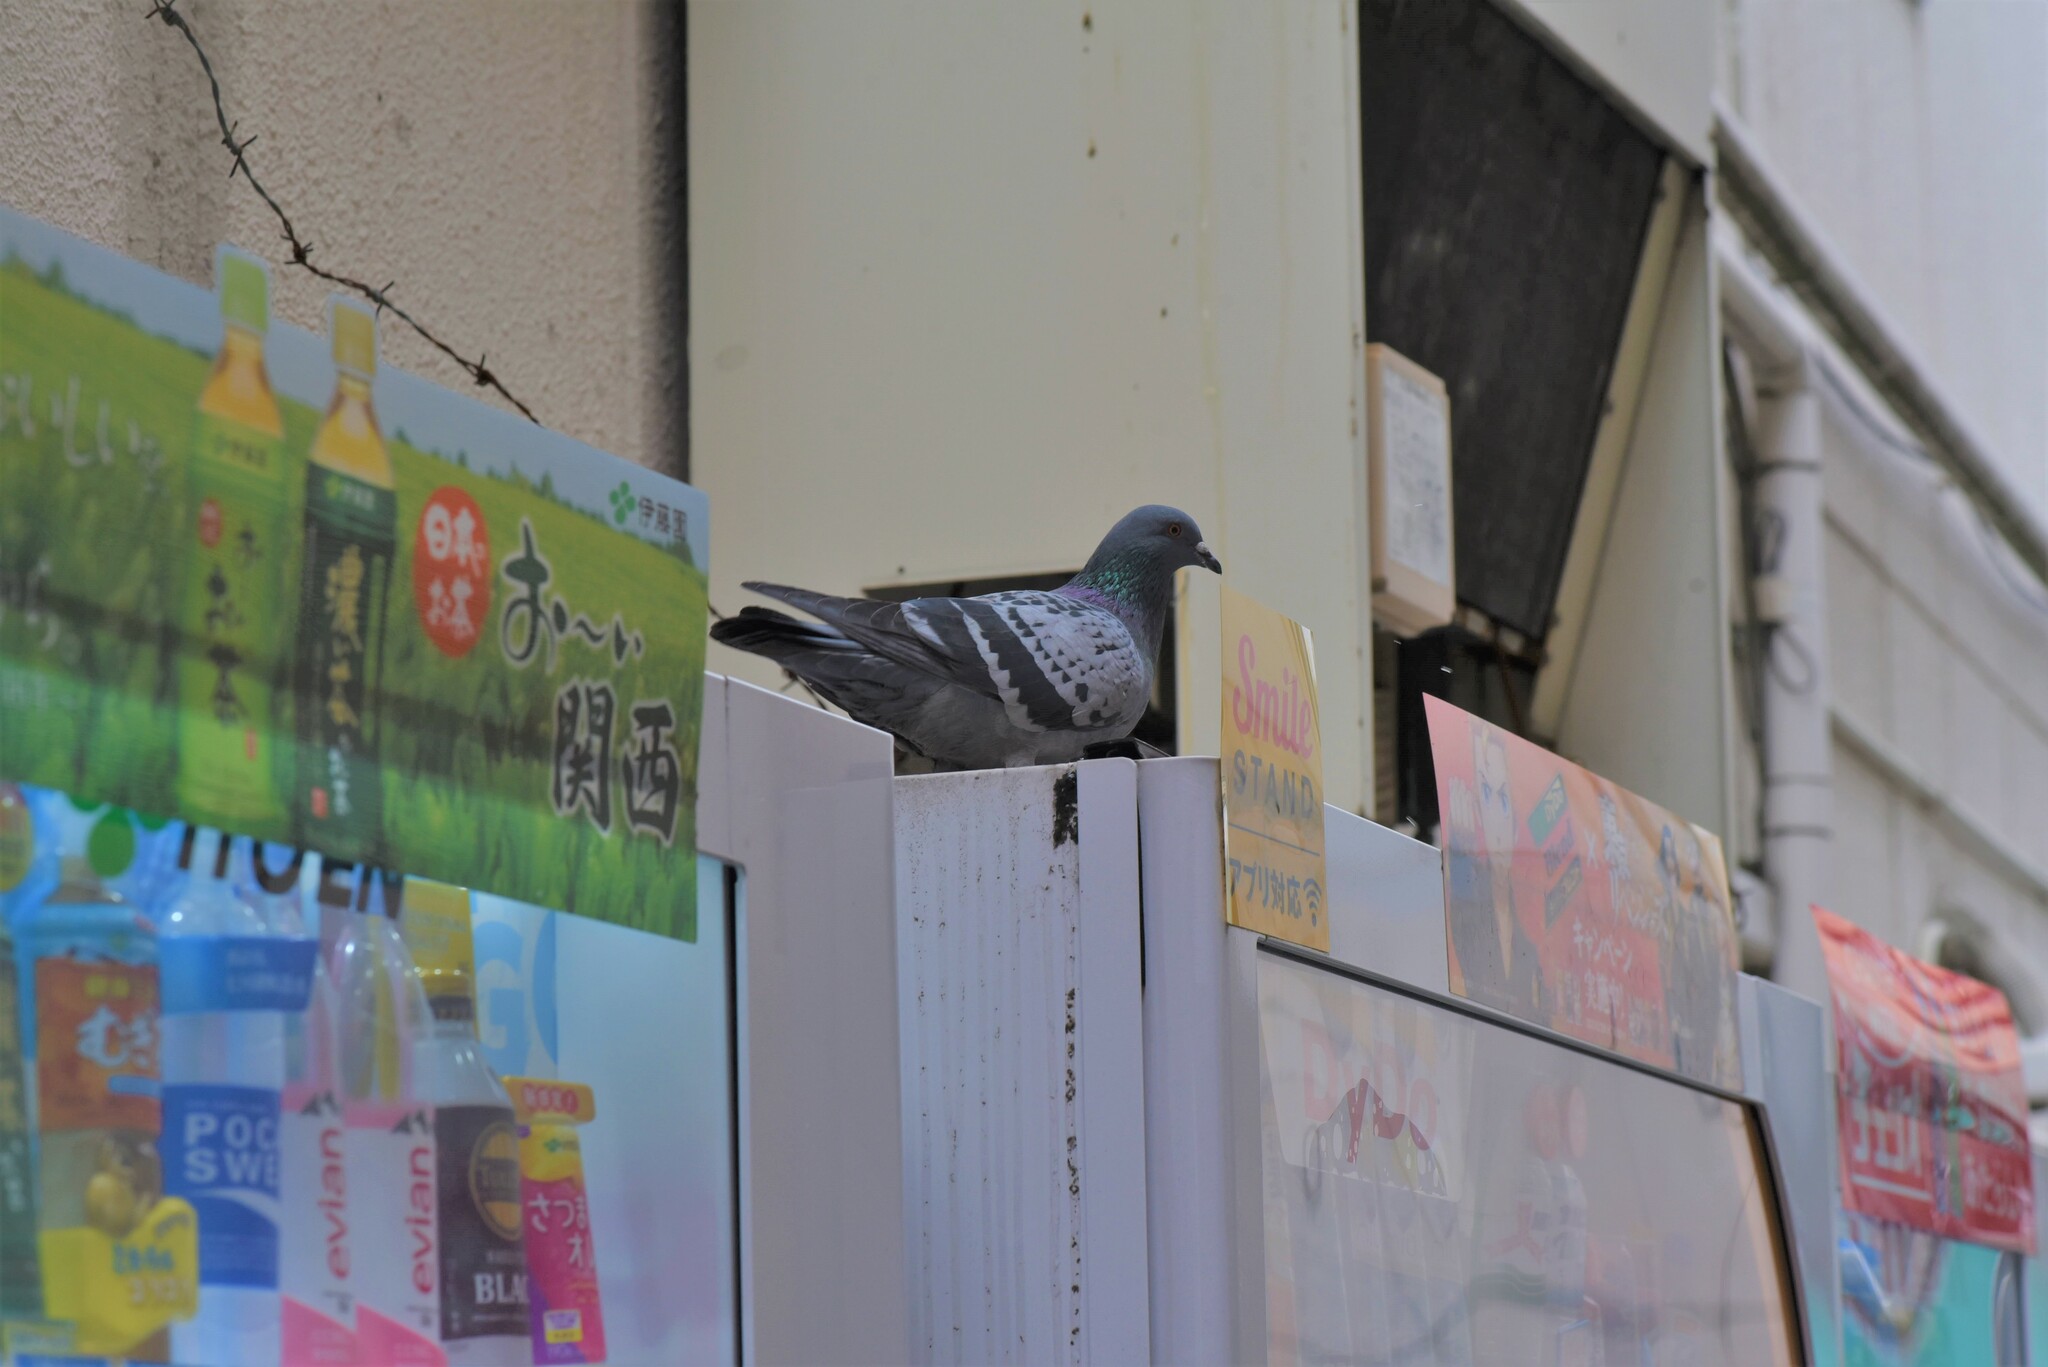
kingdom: Animalia
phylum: Chordata
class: Aves
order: Columbiformes
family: Columbidae
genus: Columba
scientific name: Columba livia
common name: Rock pigeon
